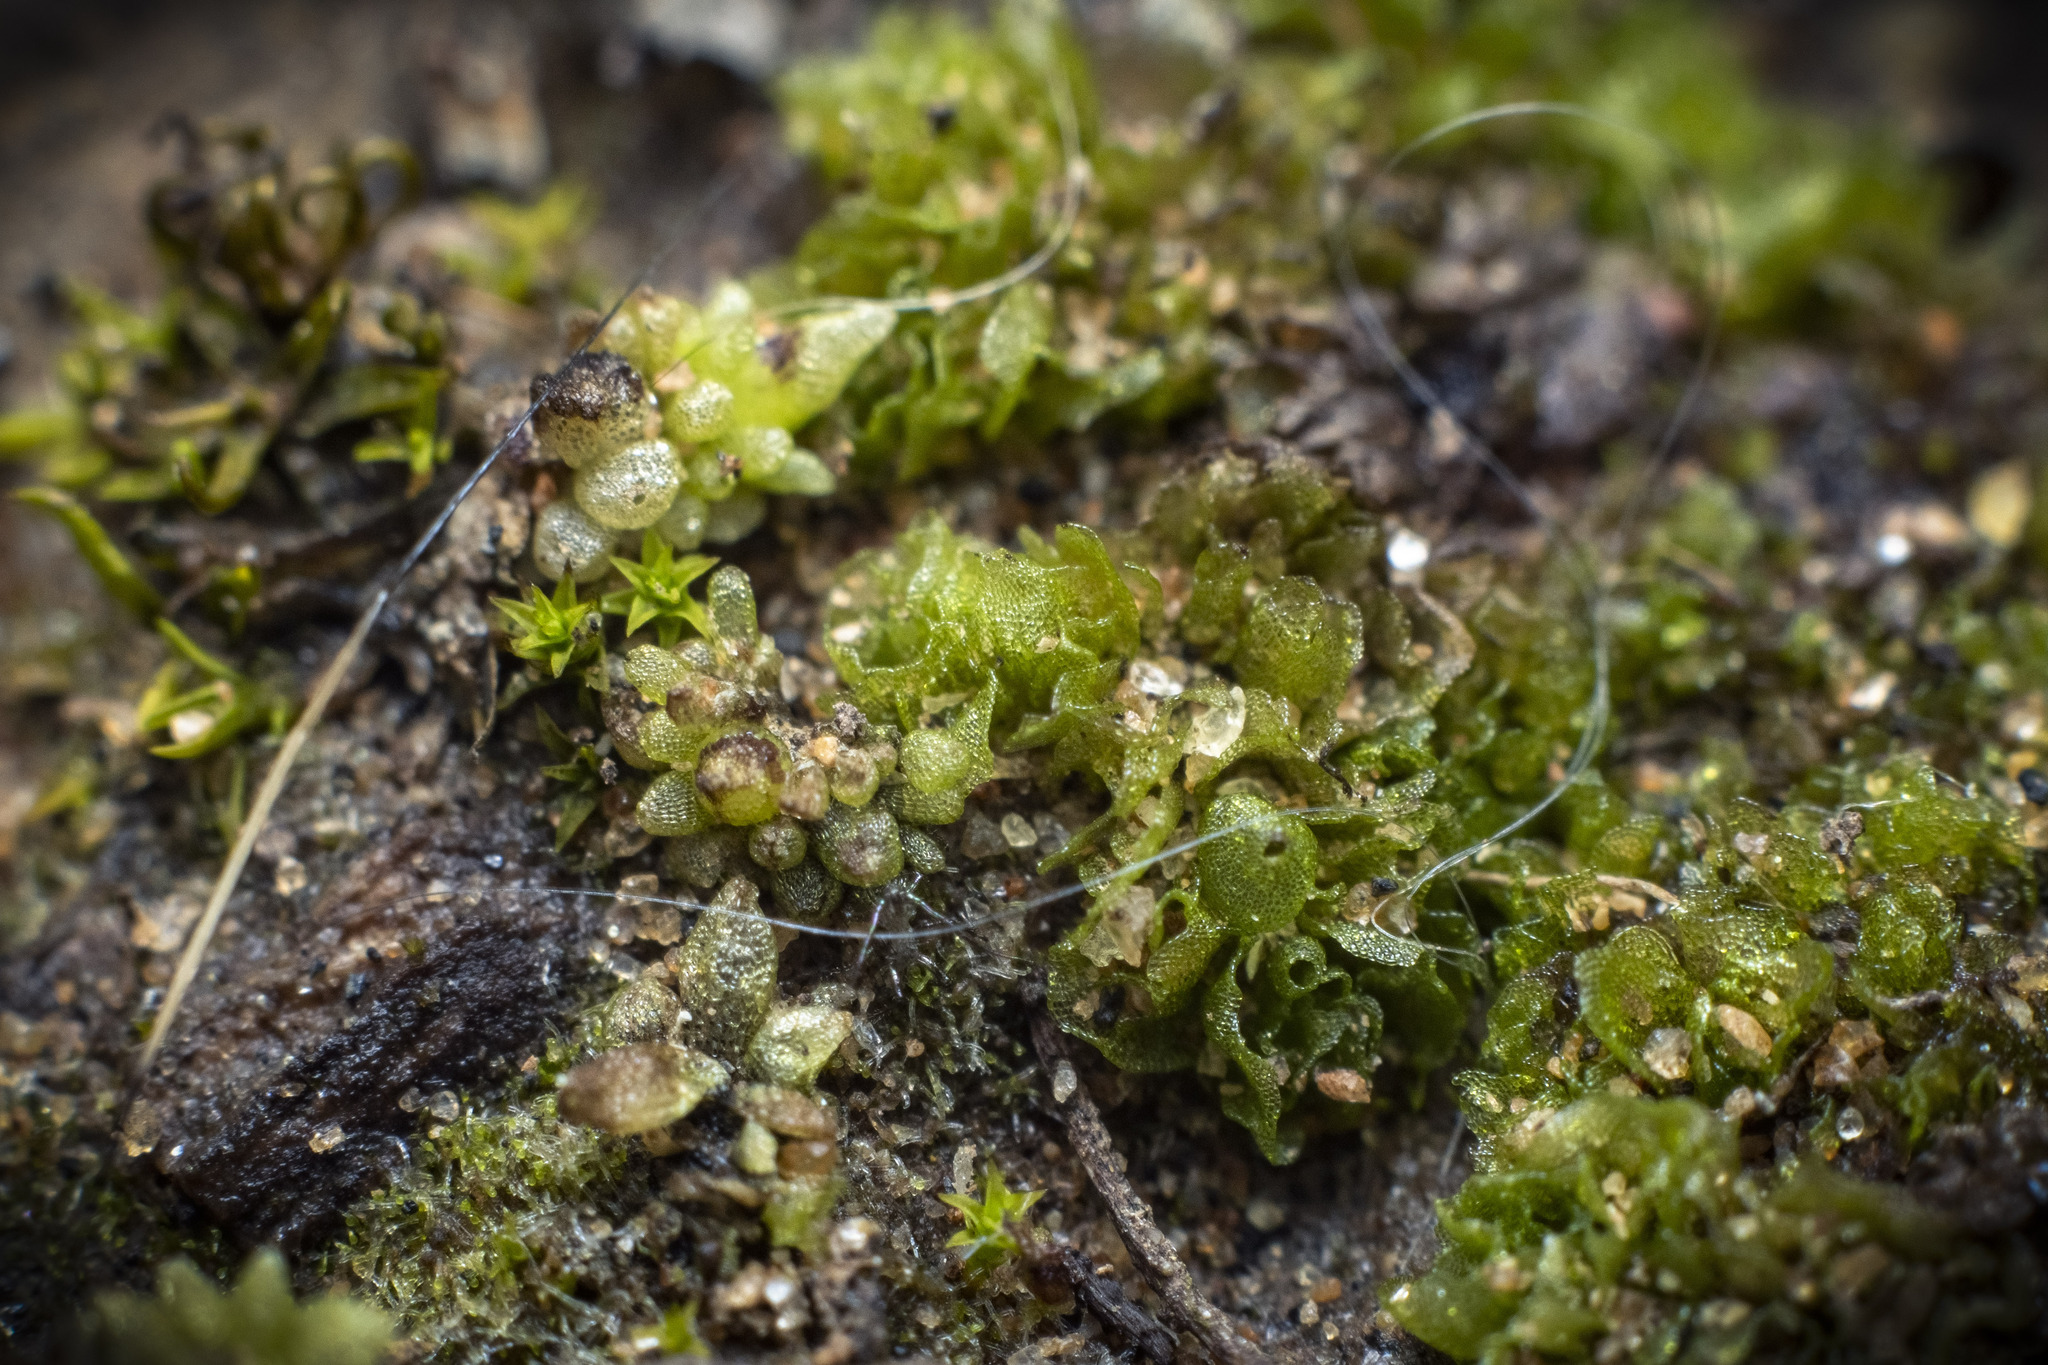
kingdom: Plantae
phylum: Marchantiophyta
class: Marchantiopsida
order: Sphaerocarpales
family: Sphaerocarpaceae
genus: Geothallus
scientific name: Geothallus tuberosus
